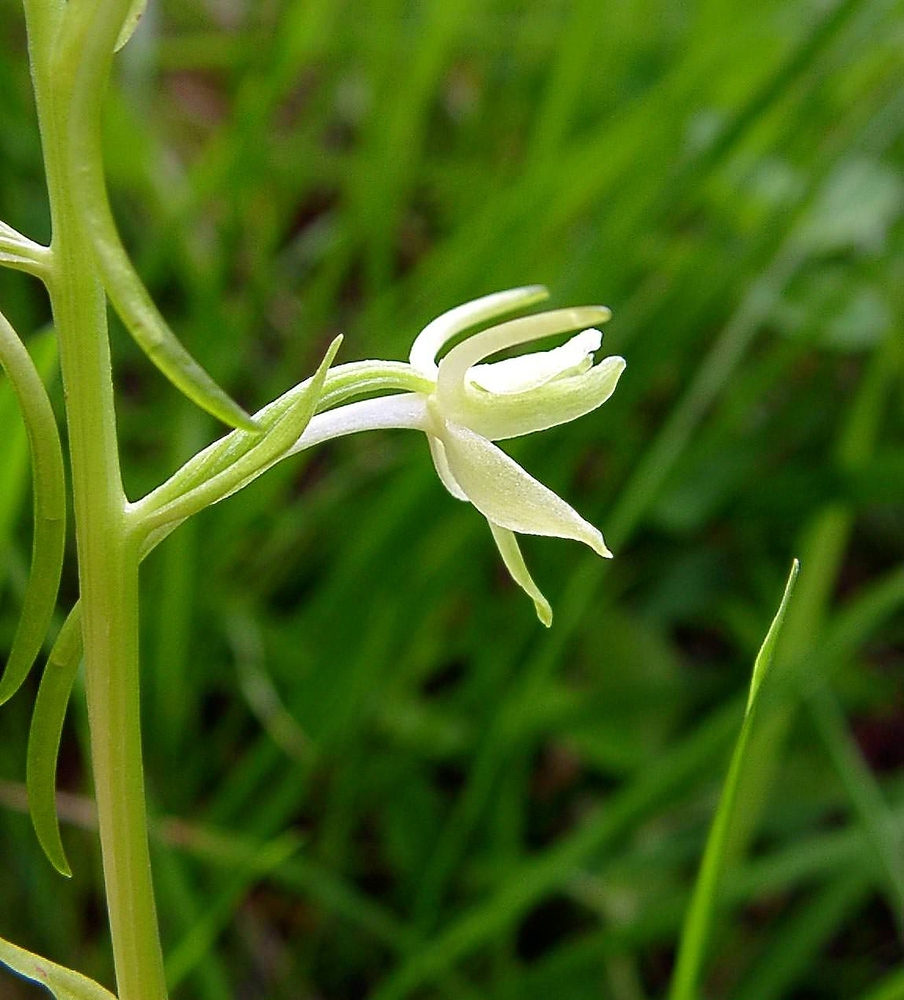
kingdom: Plantae
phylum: Tracheophyta
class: Liliopsida
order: Asparagales
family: Orchidaceae
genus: Platanthera
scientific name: Platanthera bifolia
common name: Lesser butterfly-orchid
